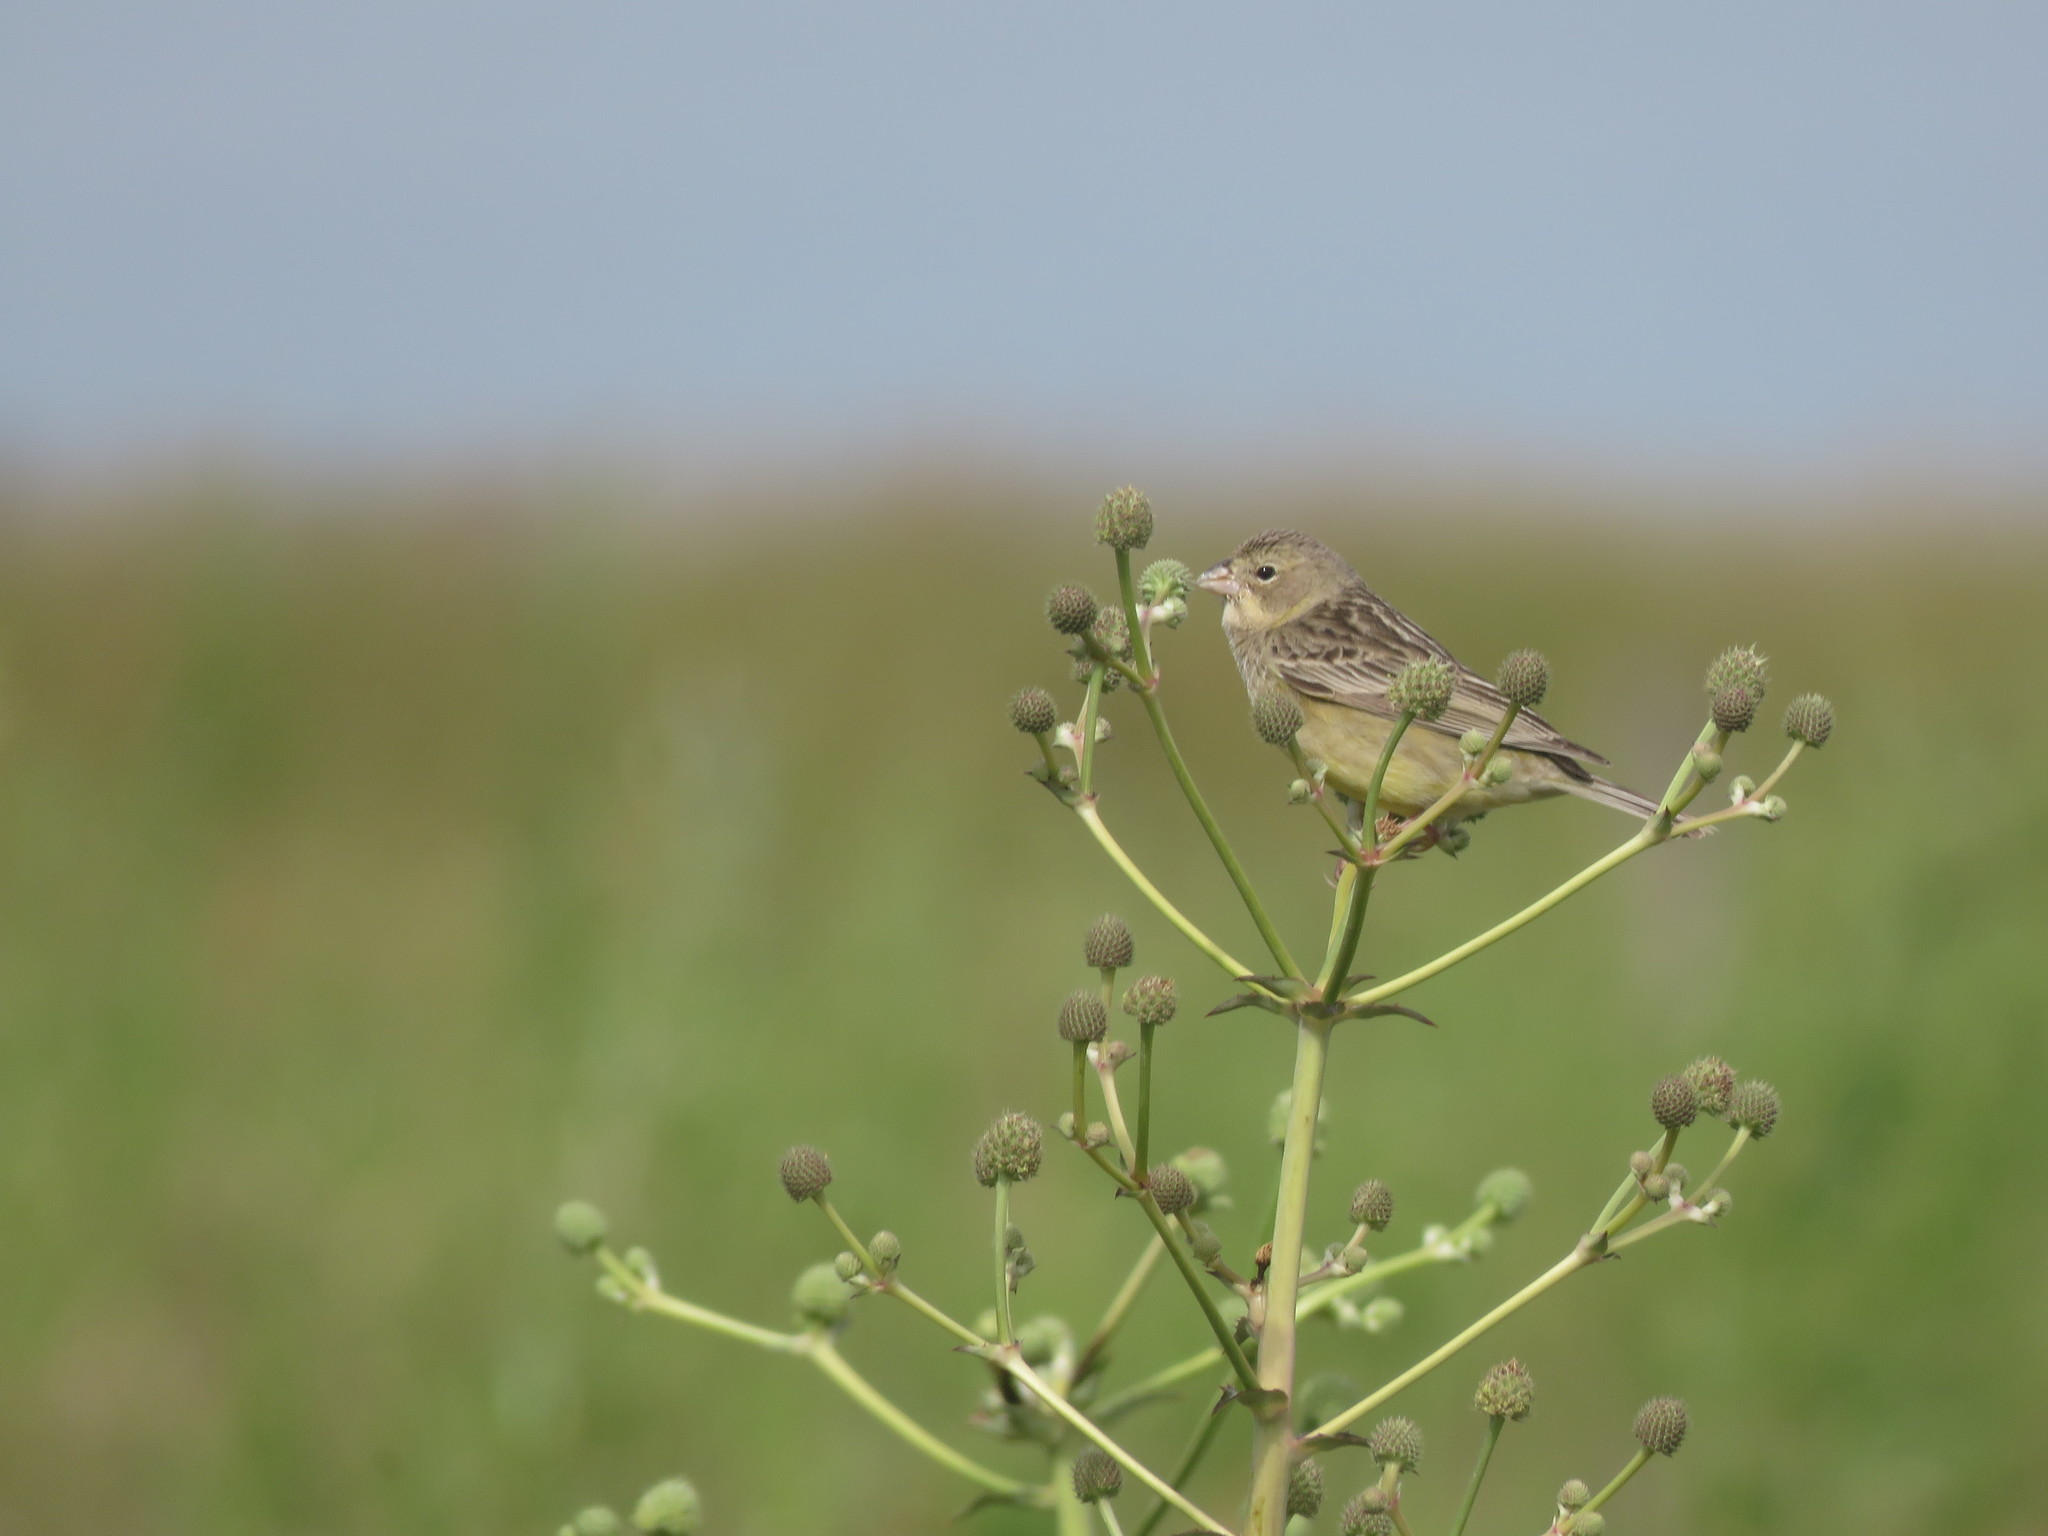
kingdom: Animalia
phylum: Chordata
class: Aves
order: Passeriformes
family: Thraupidae
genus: Sicalis
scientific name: Sicalis luteola
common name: Grassland yellow-finch
